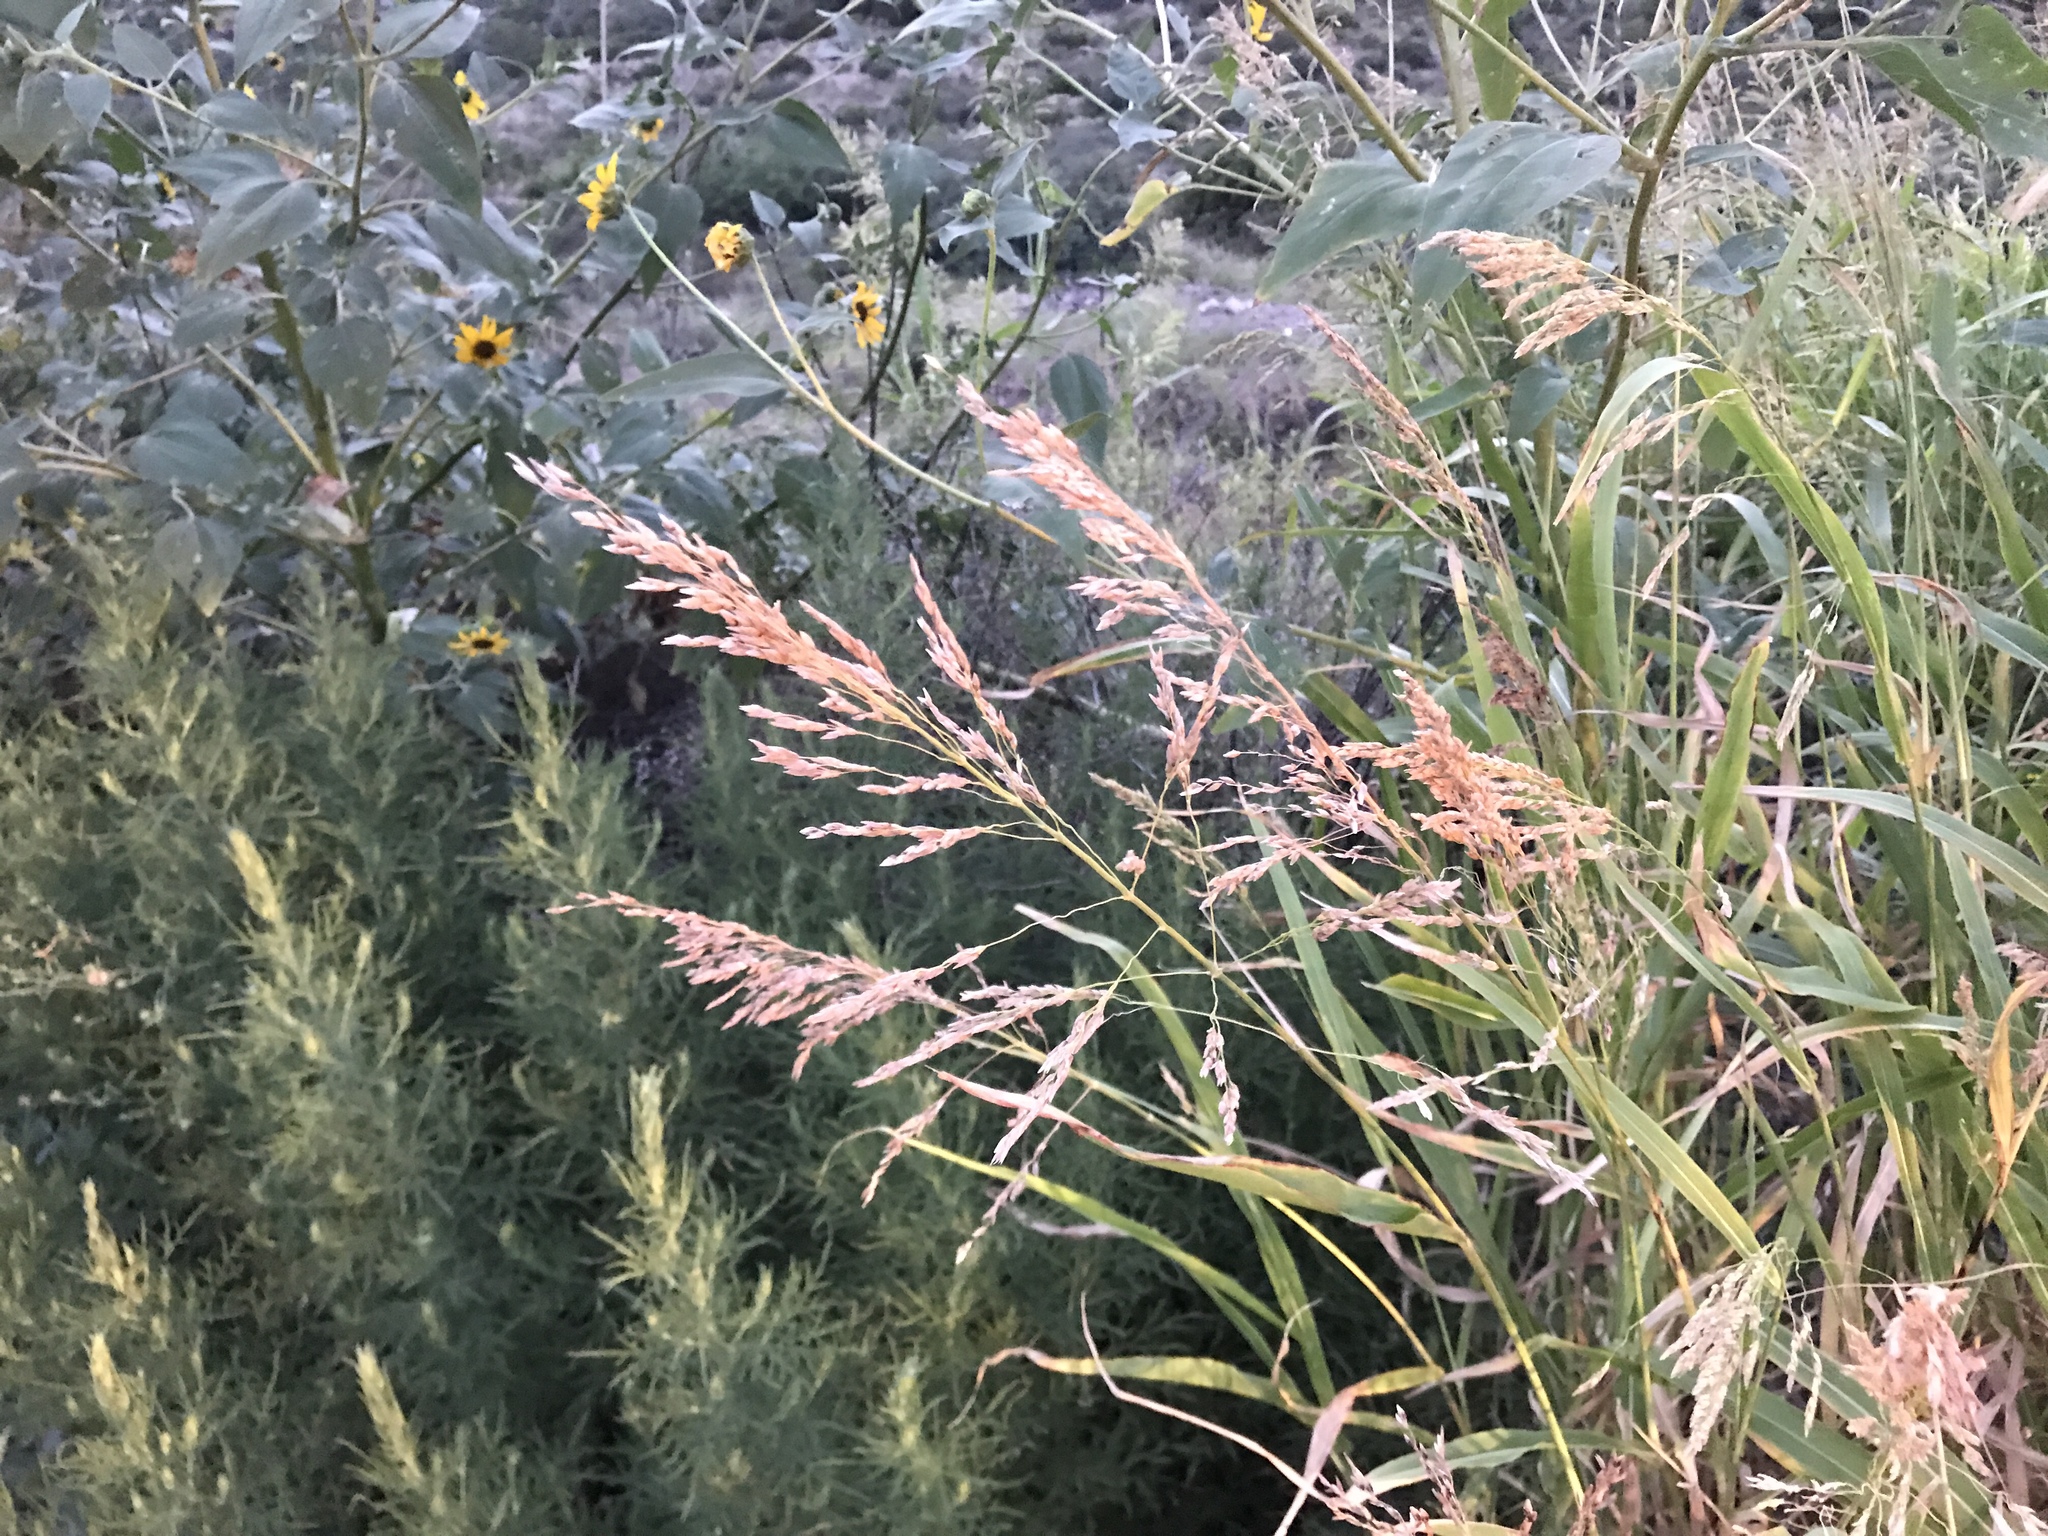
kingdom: Plantae
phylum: Tracheophyta
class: Liliopsida
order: Poales
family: Poaceae
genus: Sorghum
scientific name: Sorghum halepense
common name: Johnson-grass
